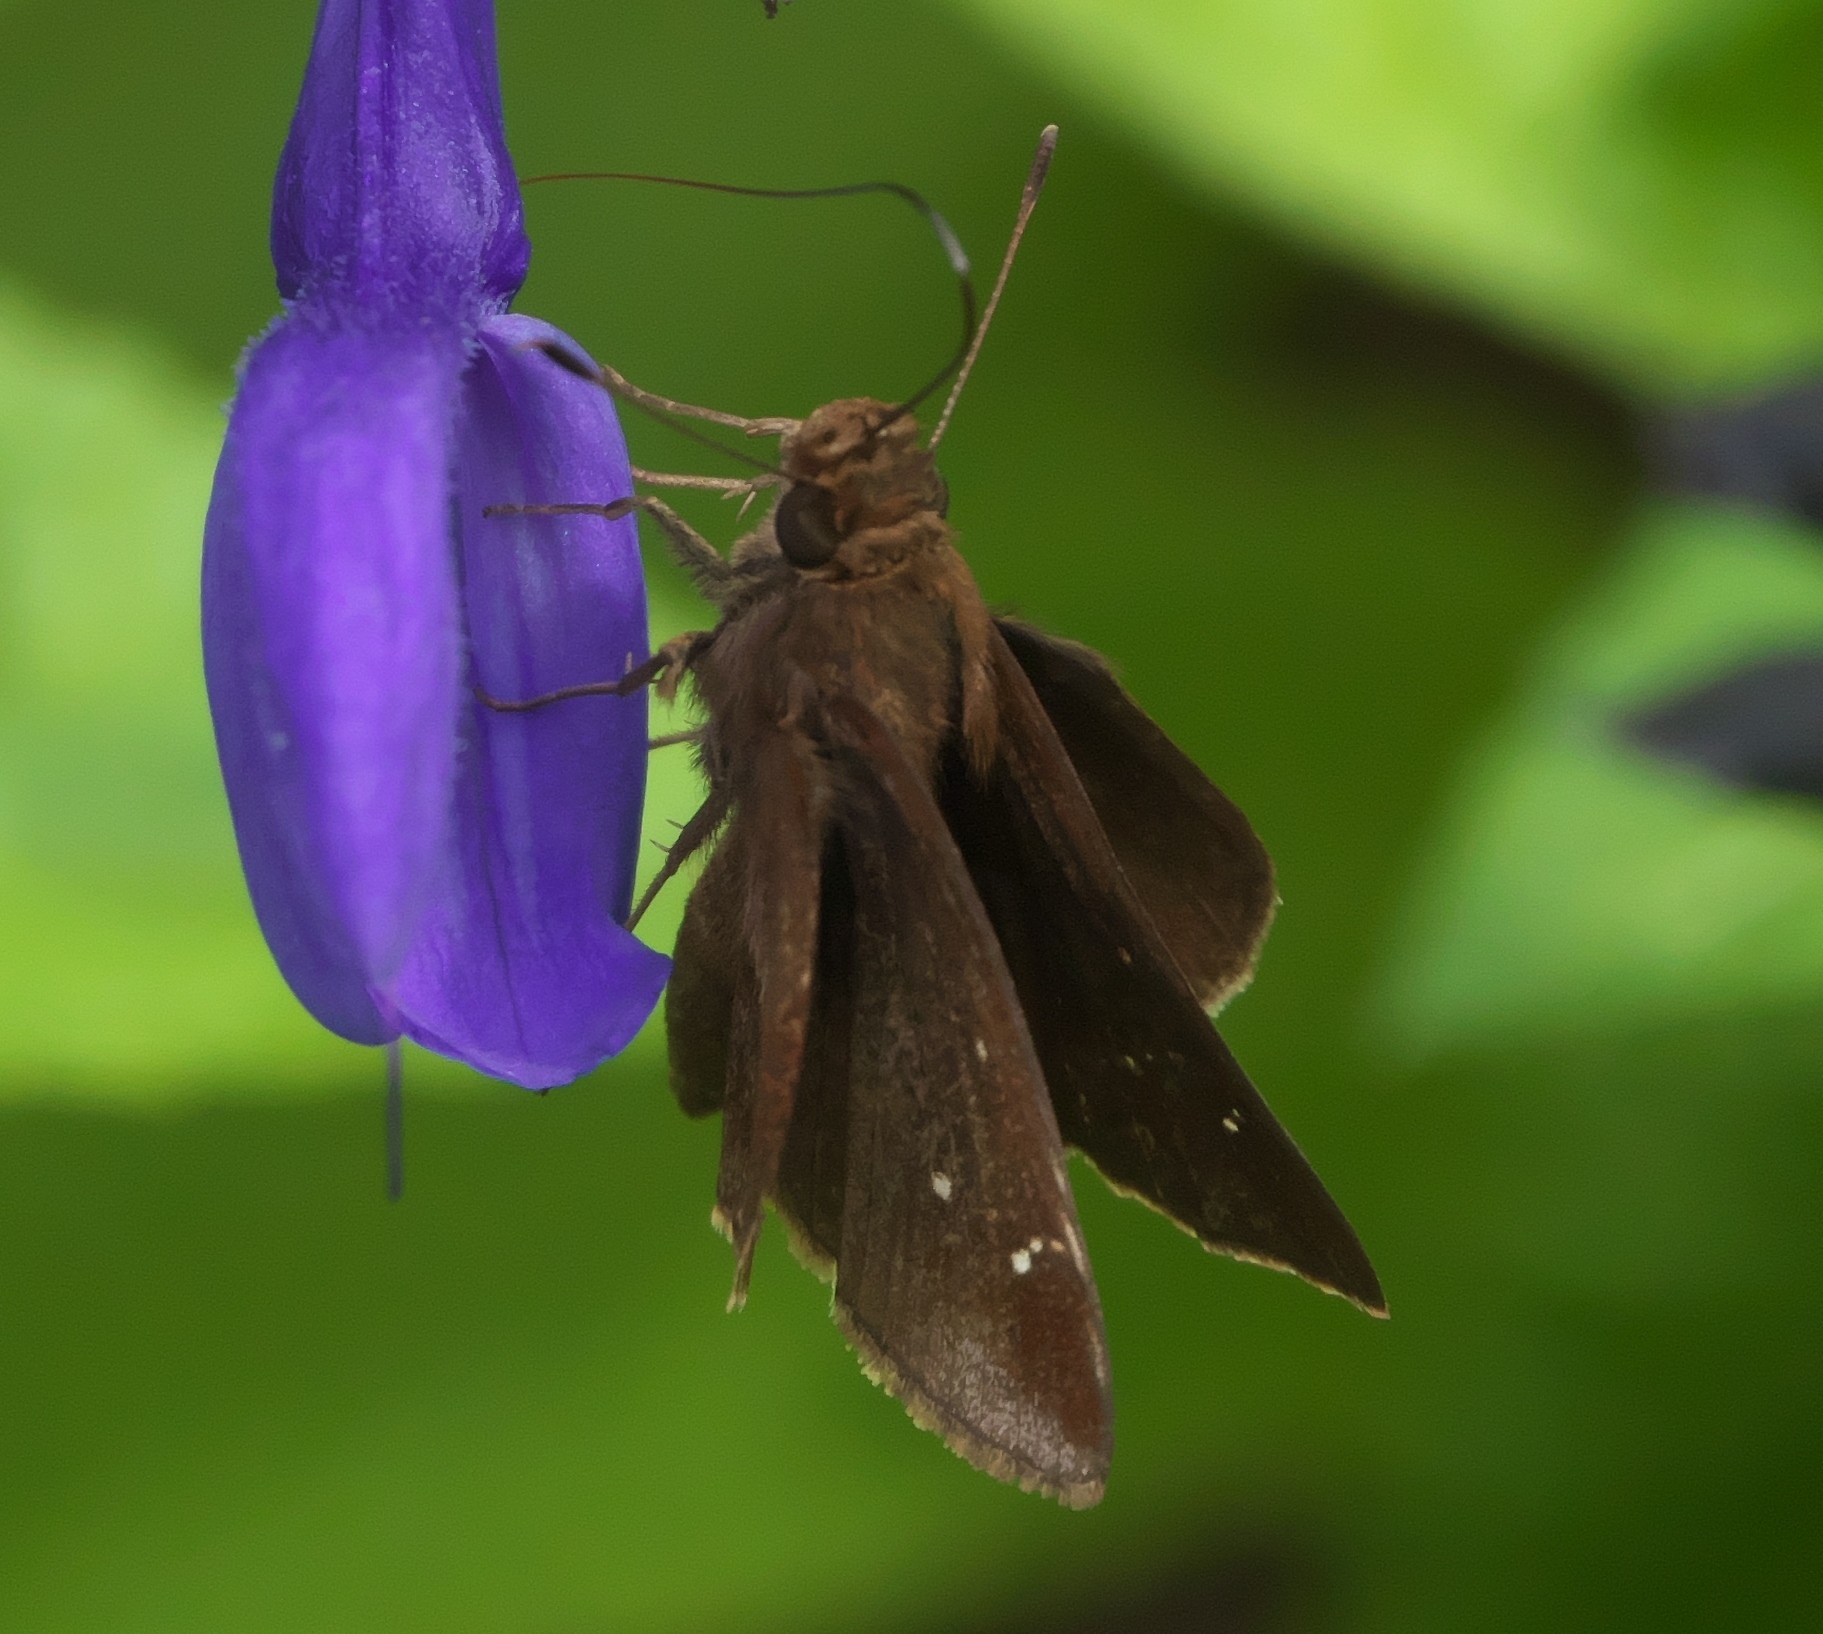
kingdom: Animalia
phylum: Arthropoda
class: Insecta
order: Lepidoptera
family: Hesperiidae
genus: Lerema
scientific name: Lerema accius
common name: Clouded skipper
